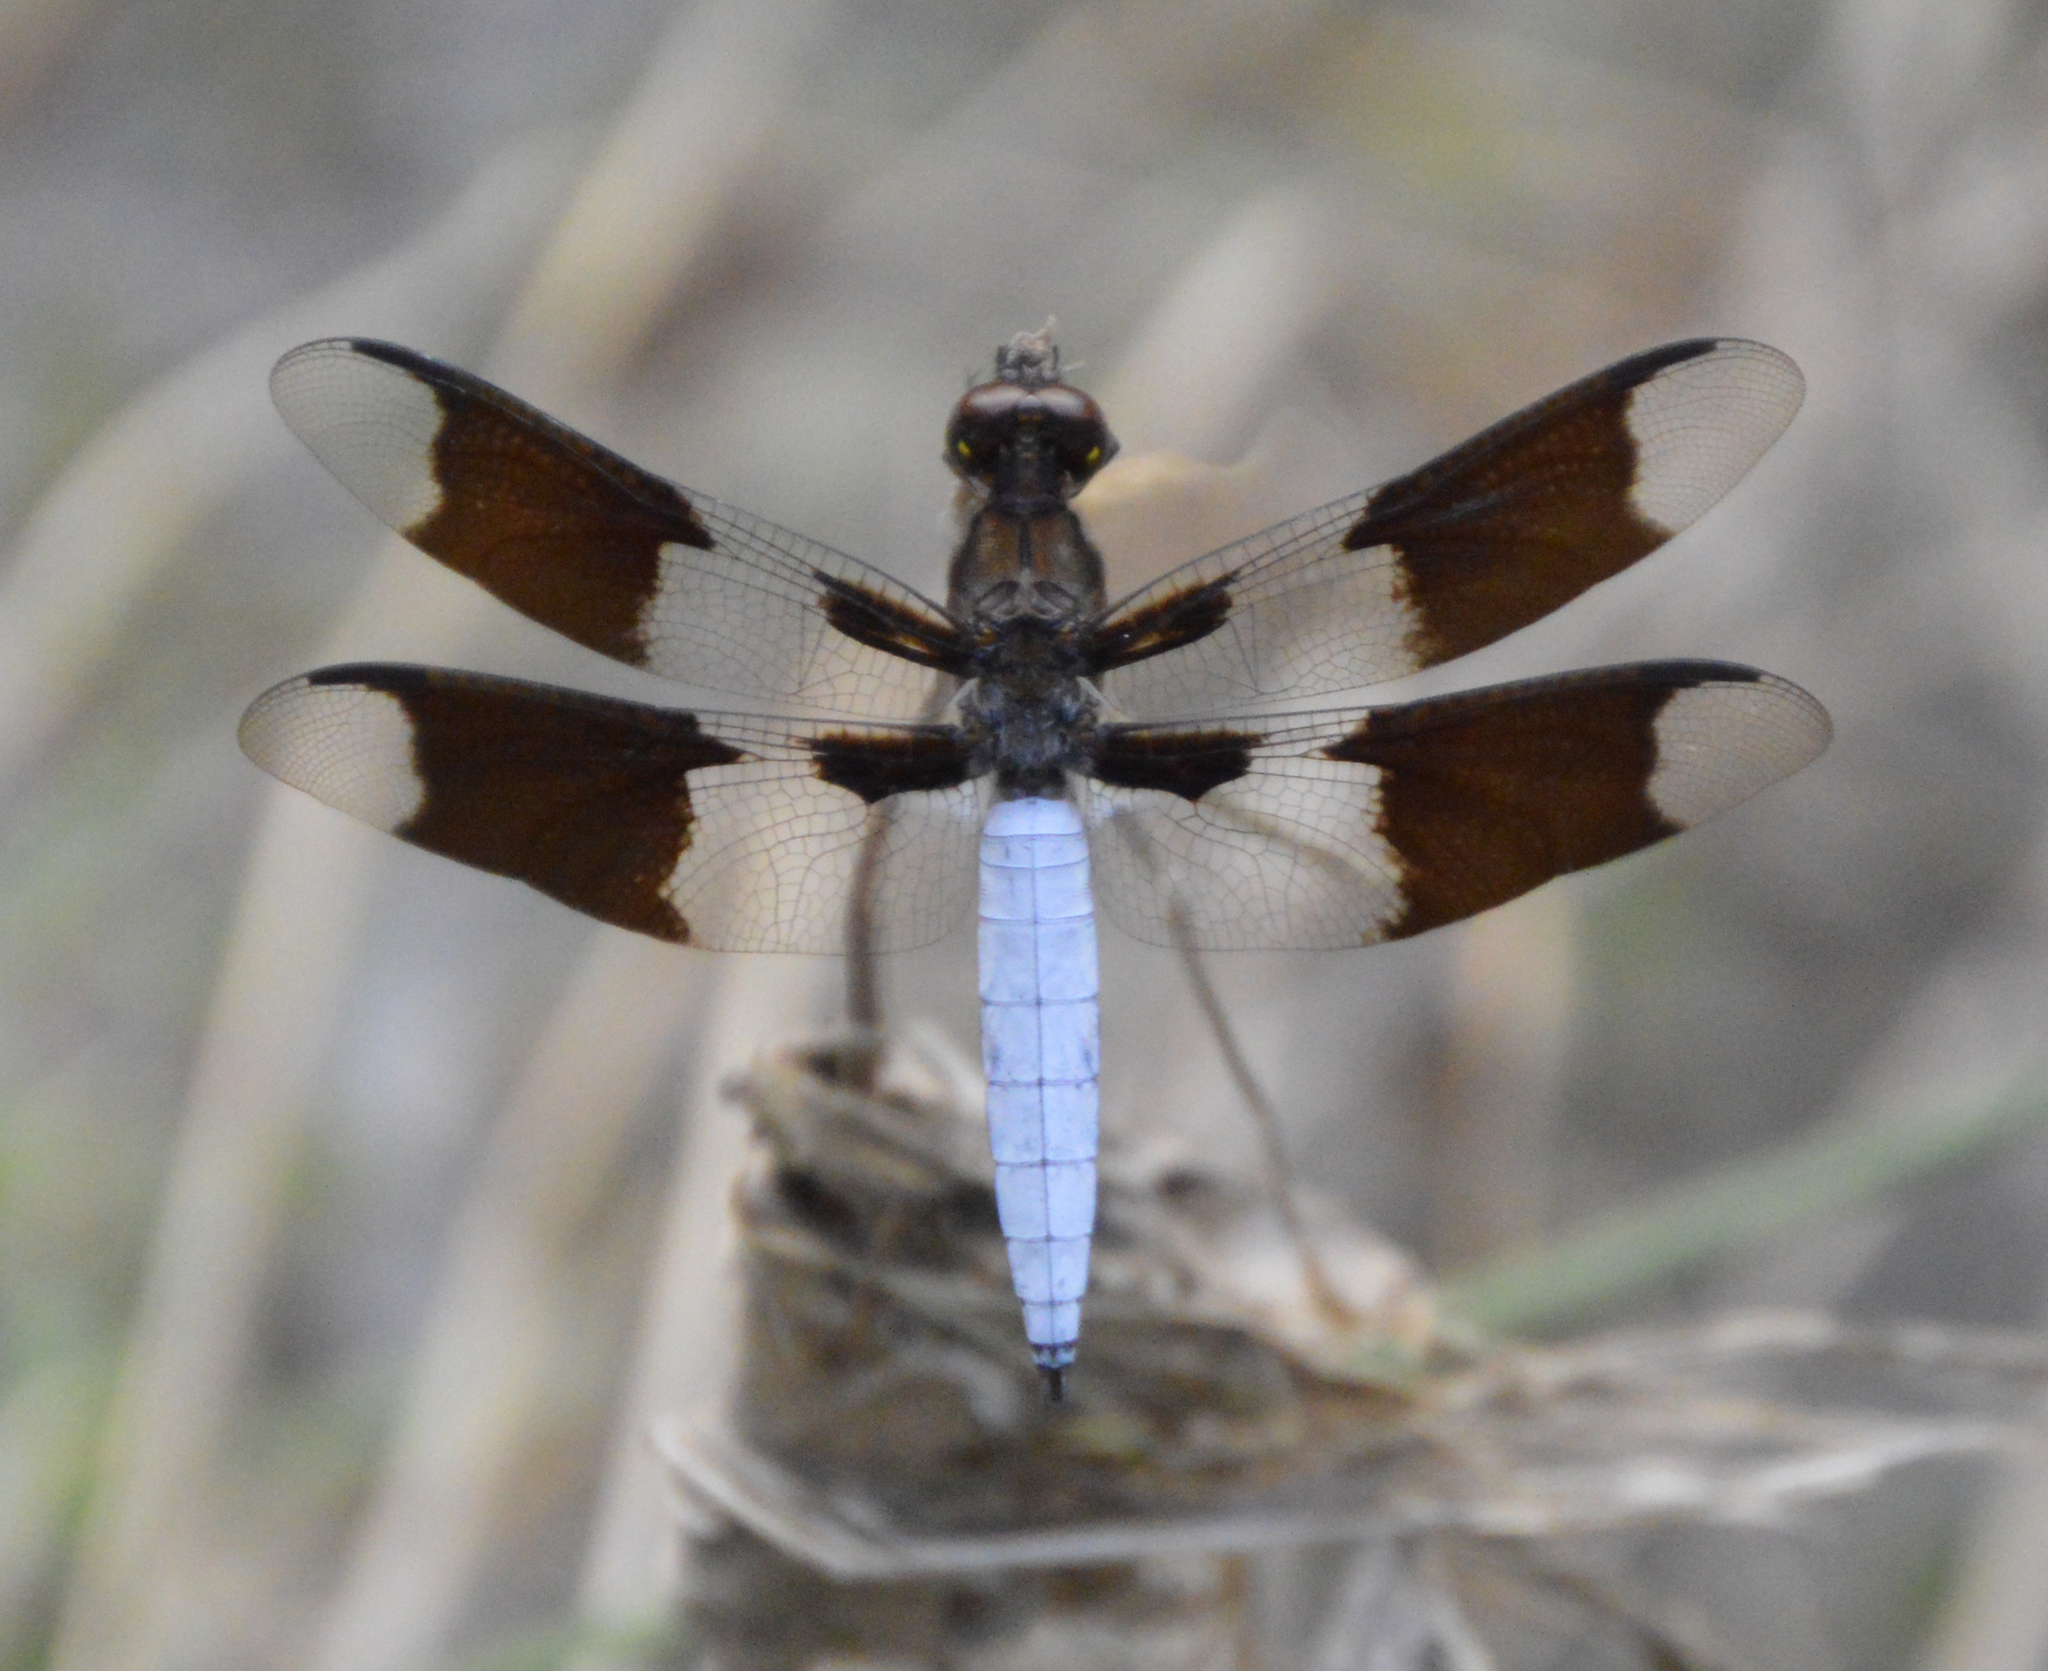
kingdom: Animalia
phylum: Arthropoda
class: Insecta
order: Odonata
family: Libellulidae
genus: Plathemis
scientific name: Plathemis lydia
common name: Common whitetail
